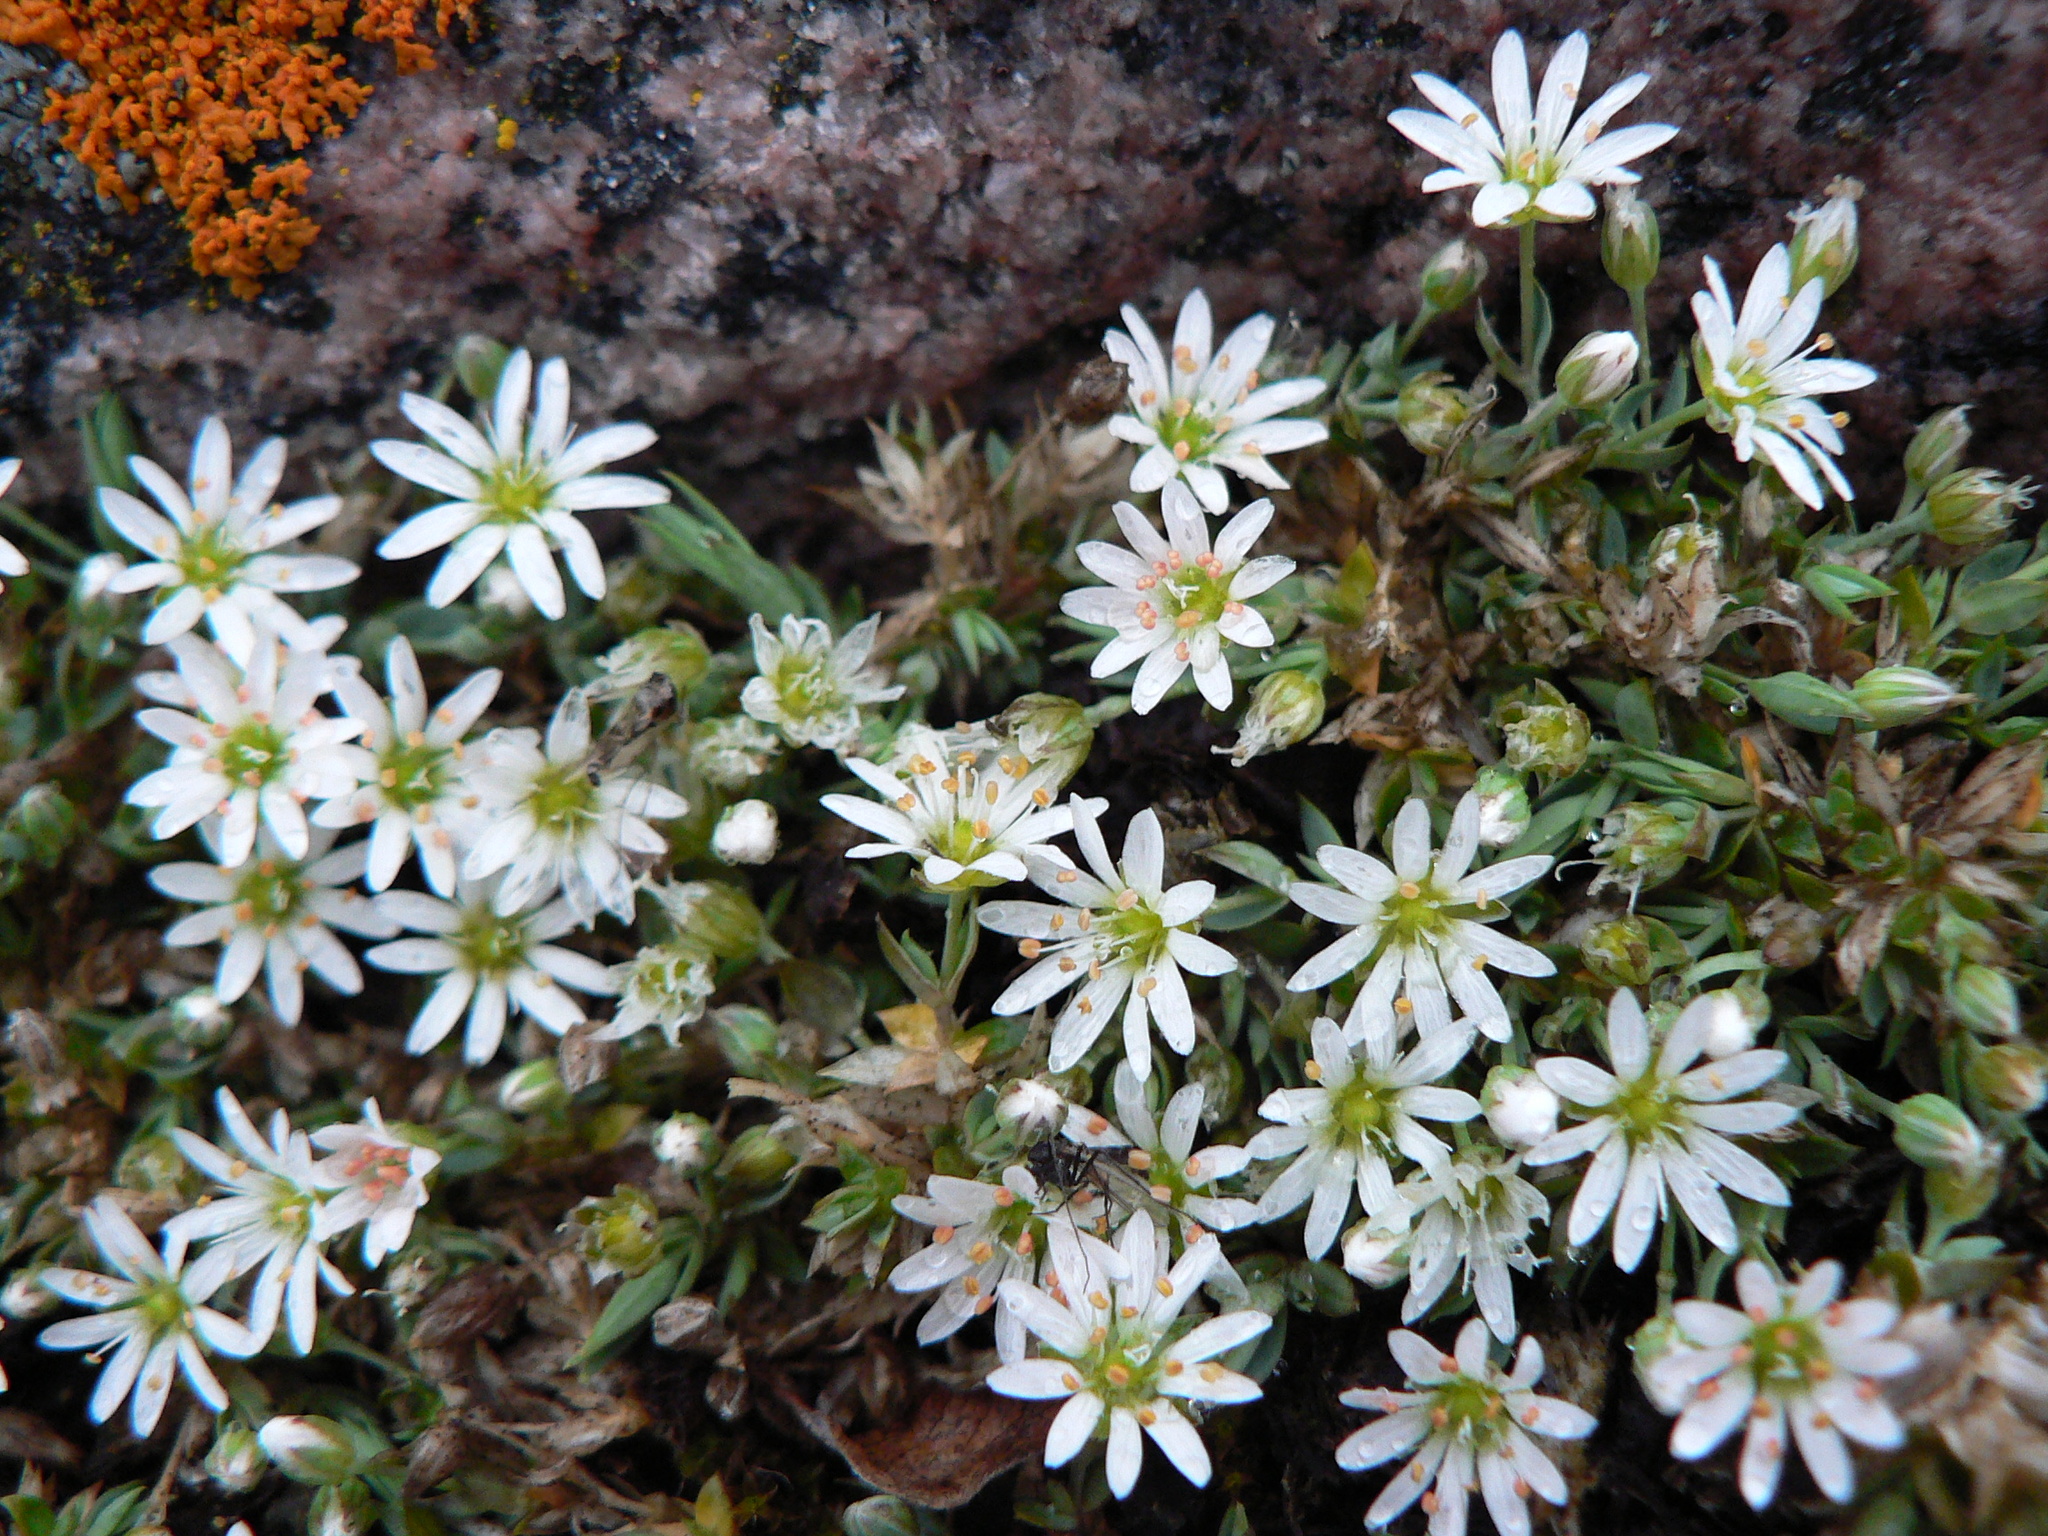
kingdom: Plantae
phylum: Tracheophyta
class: Magnoliopsida
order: Caryophyllales
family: Caryophyllaceae
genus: Stellaria
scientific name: Stellaria longipes
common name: Goldie's starwort
